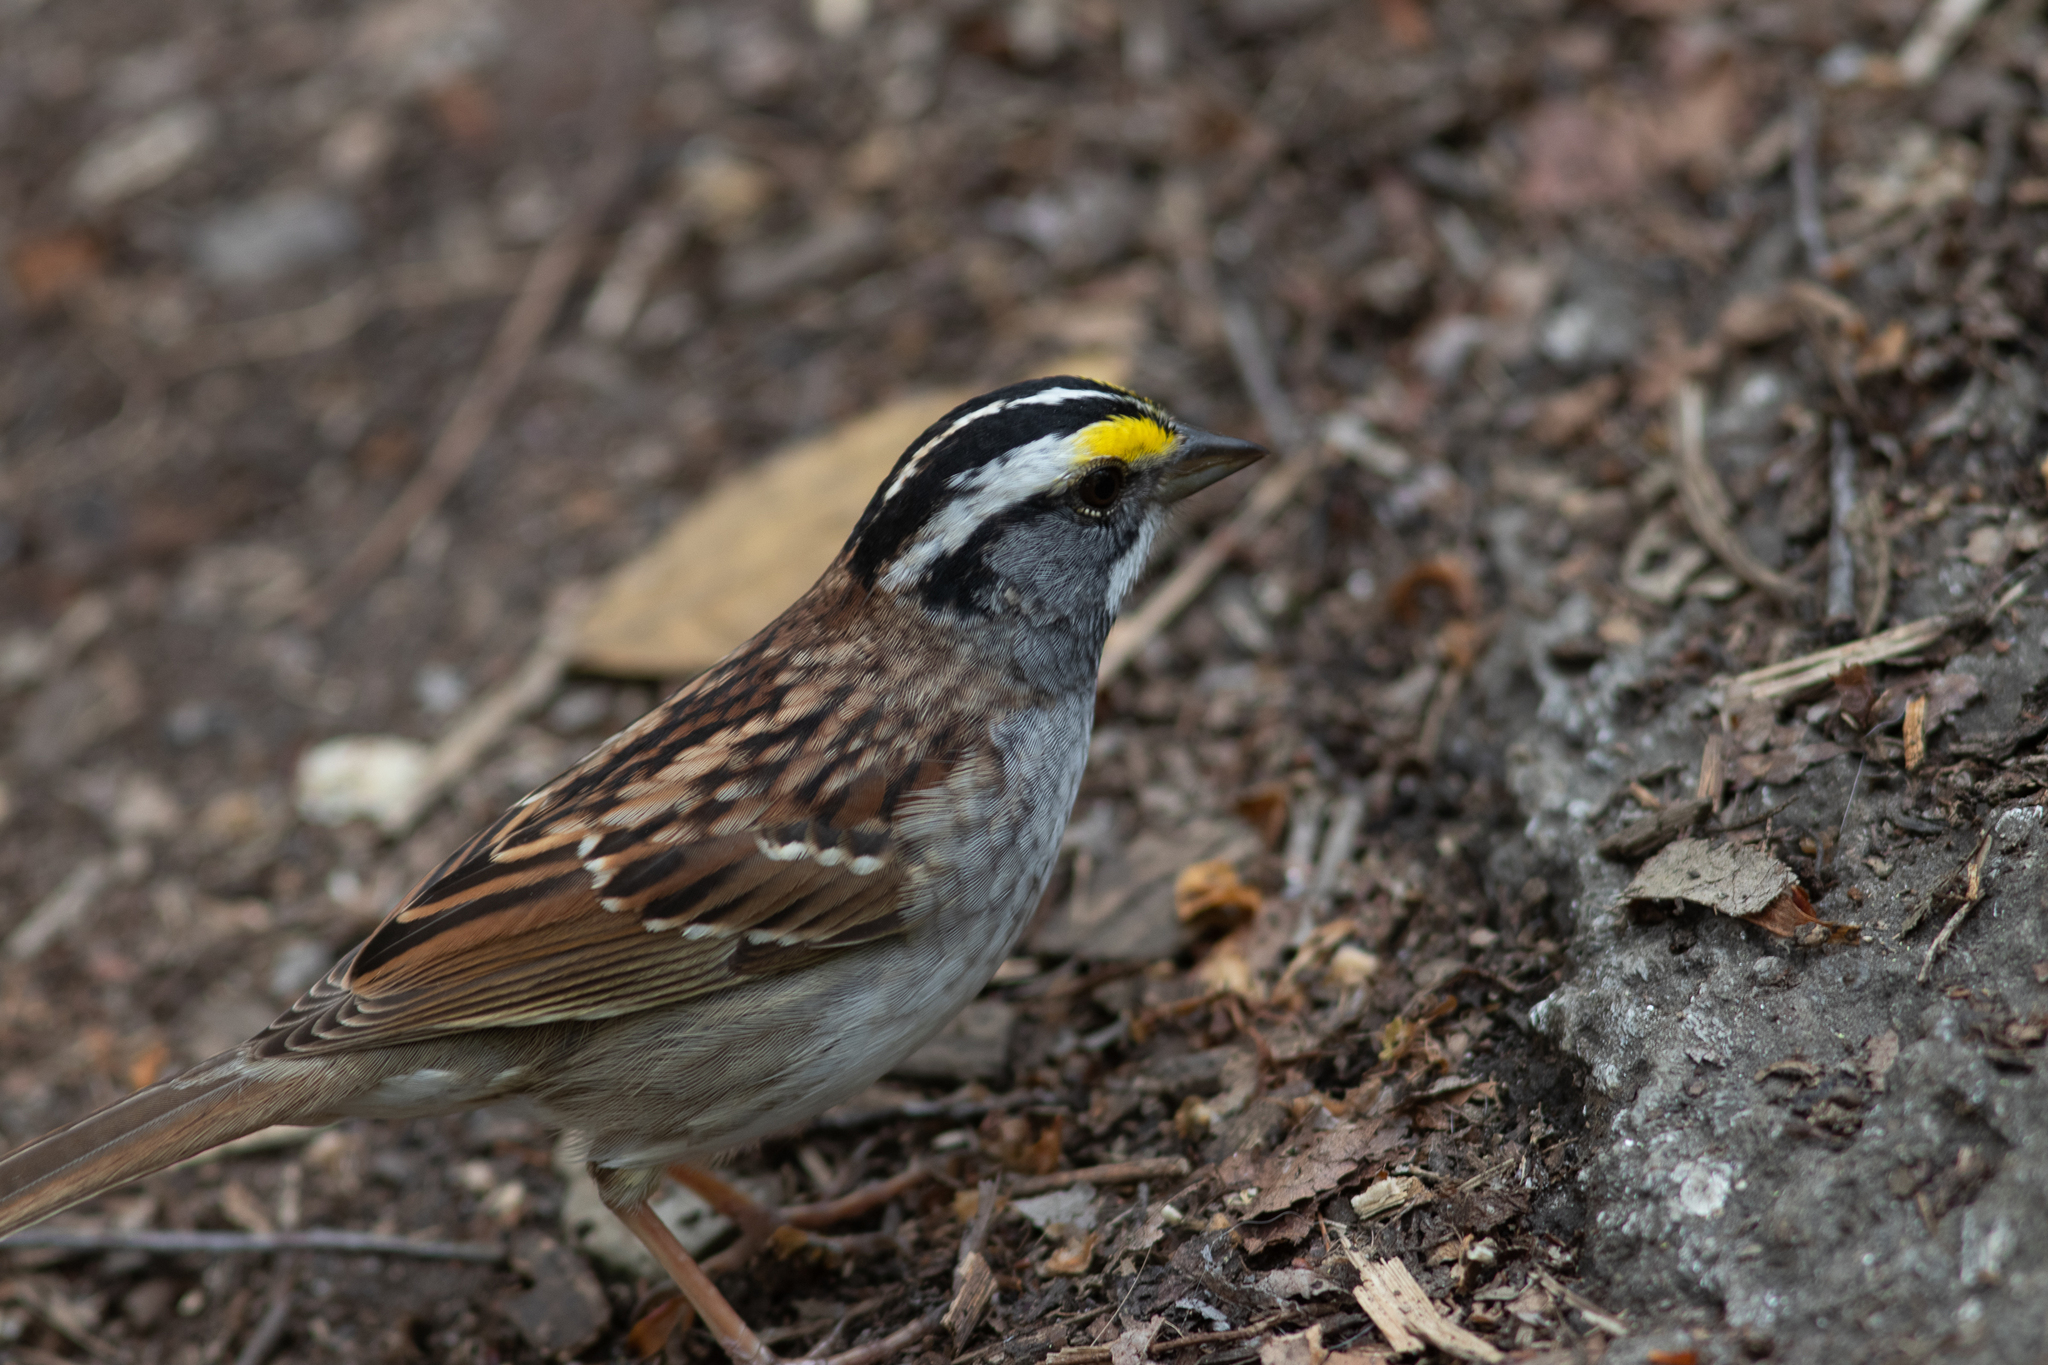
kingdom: Animalia
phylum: Chordata
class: Aves
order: Passeriformes
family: Passerellidae
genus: Zonotrichia
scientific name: Zonotrichia albicollis
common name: White-throated sparrow
